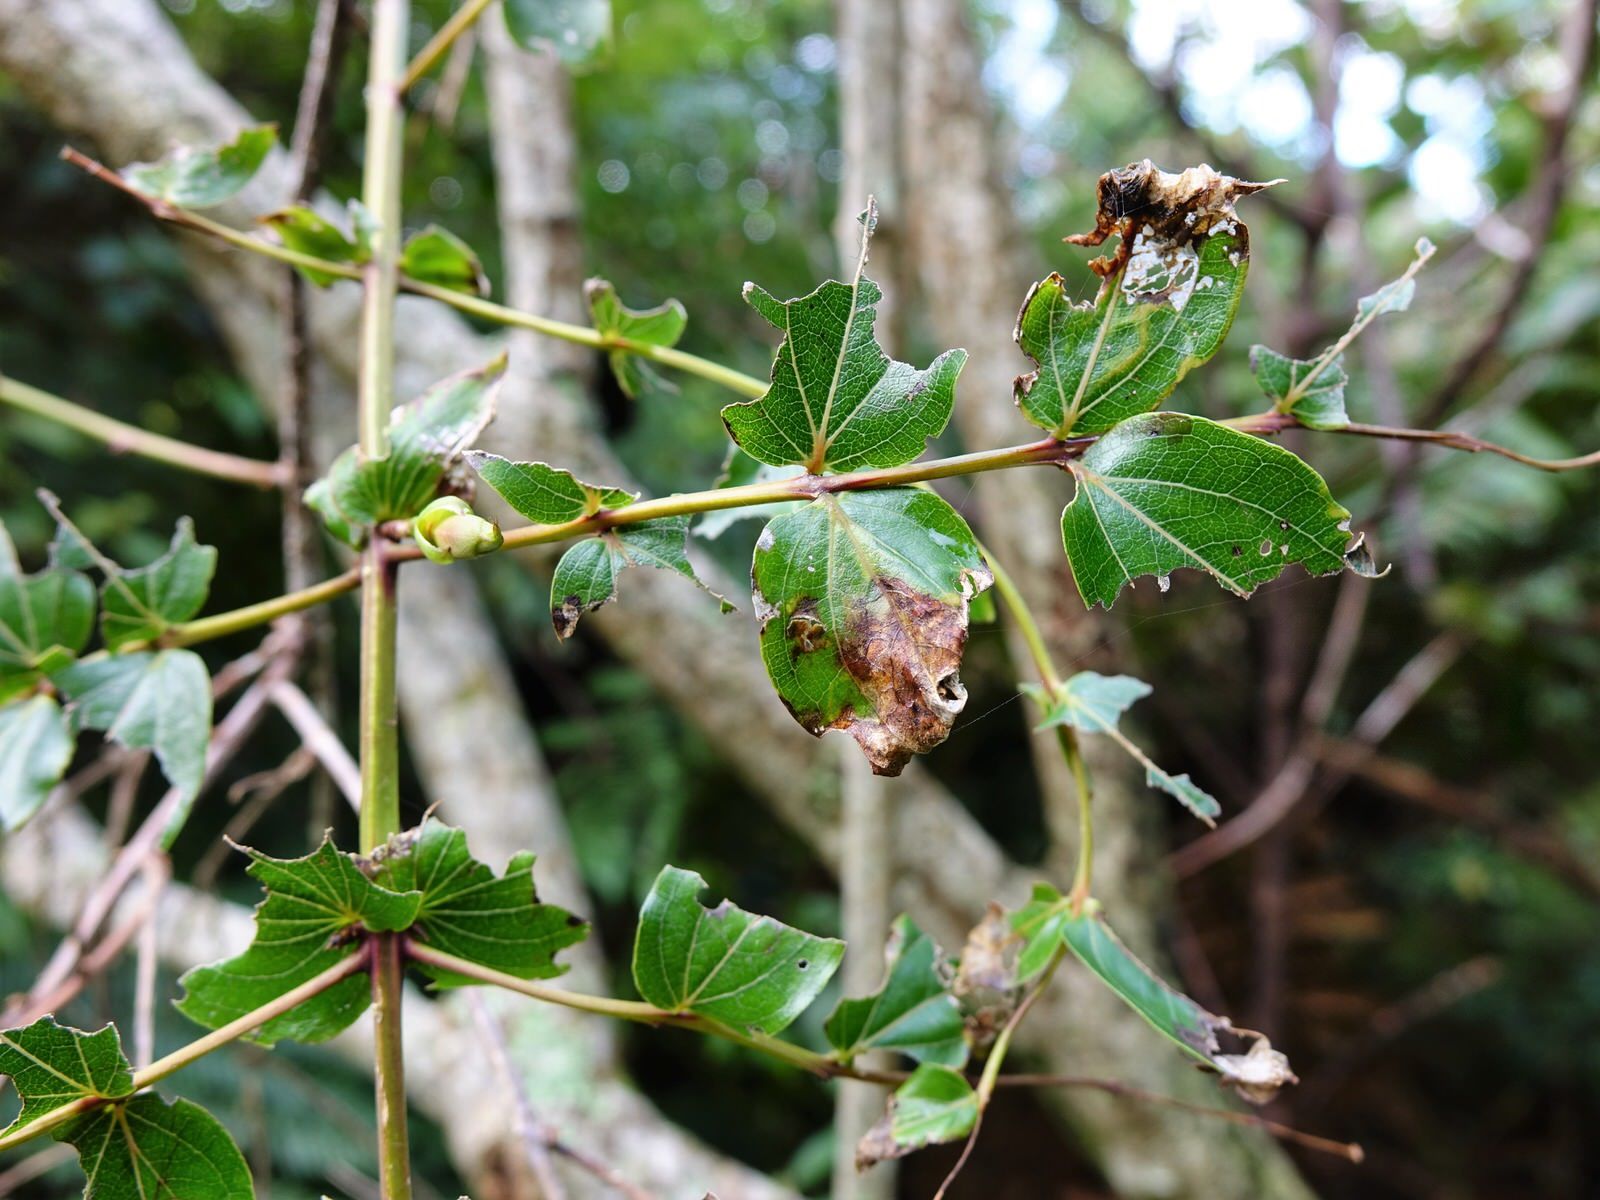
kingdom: Plantae
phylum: Tracheophyta
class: Magnoliopsida
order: Cucurbitales
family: Coriariaceae
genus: Coriaria
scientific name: Coriaria arborea
